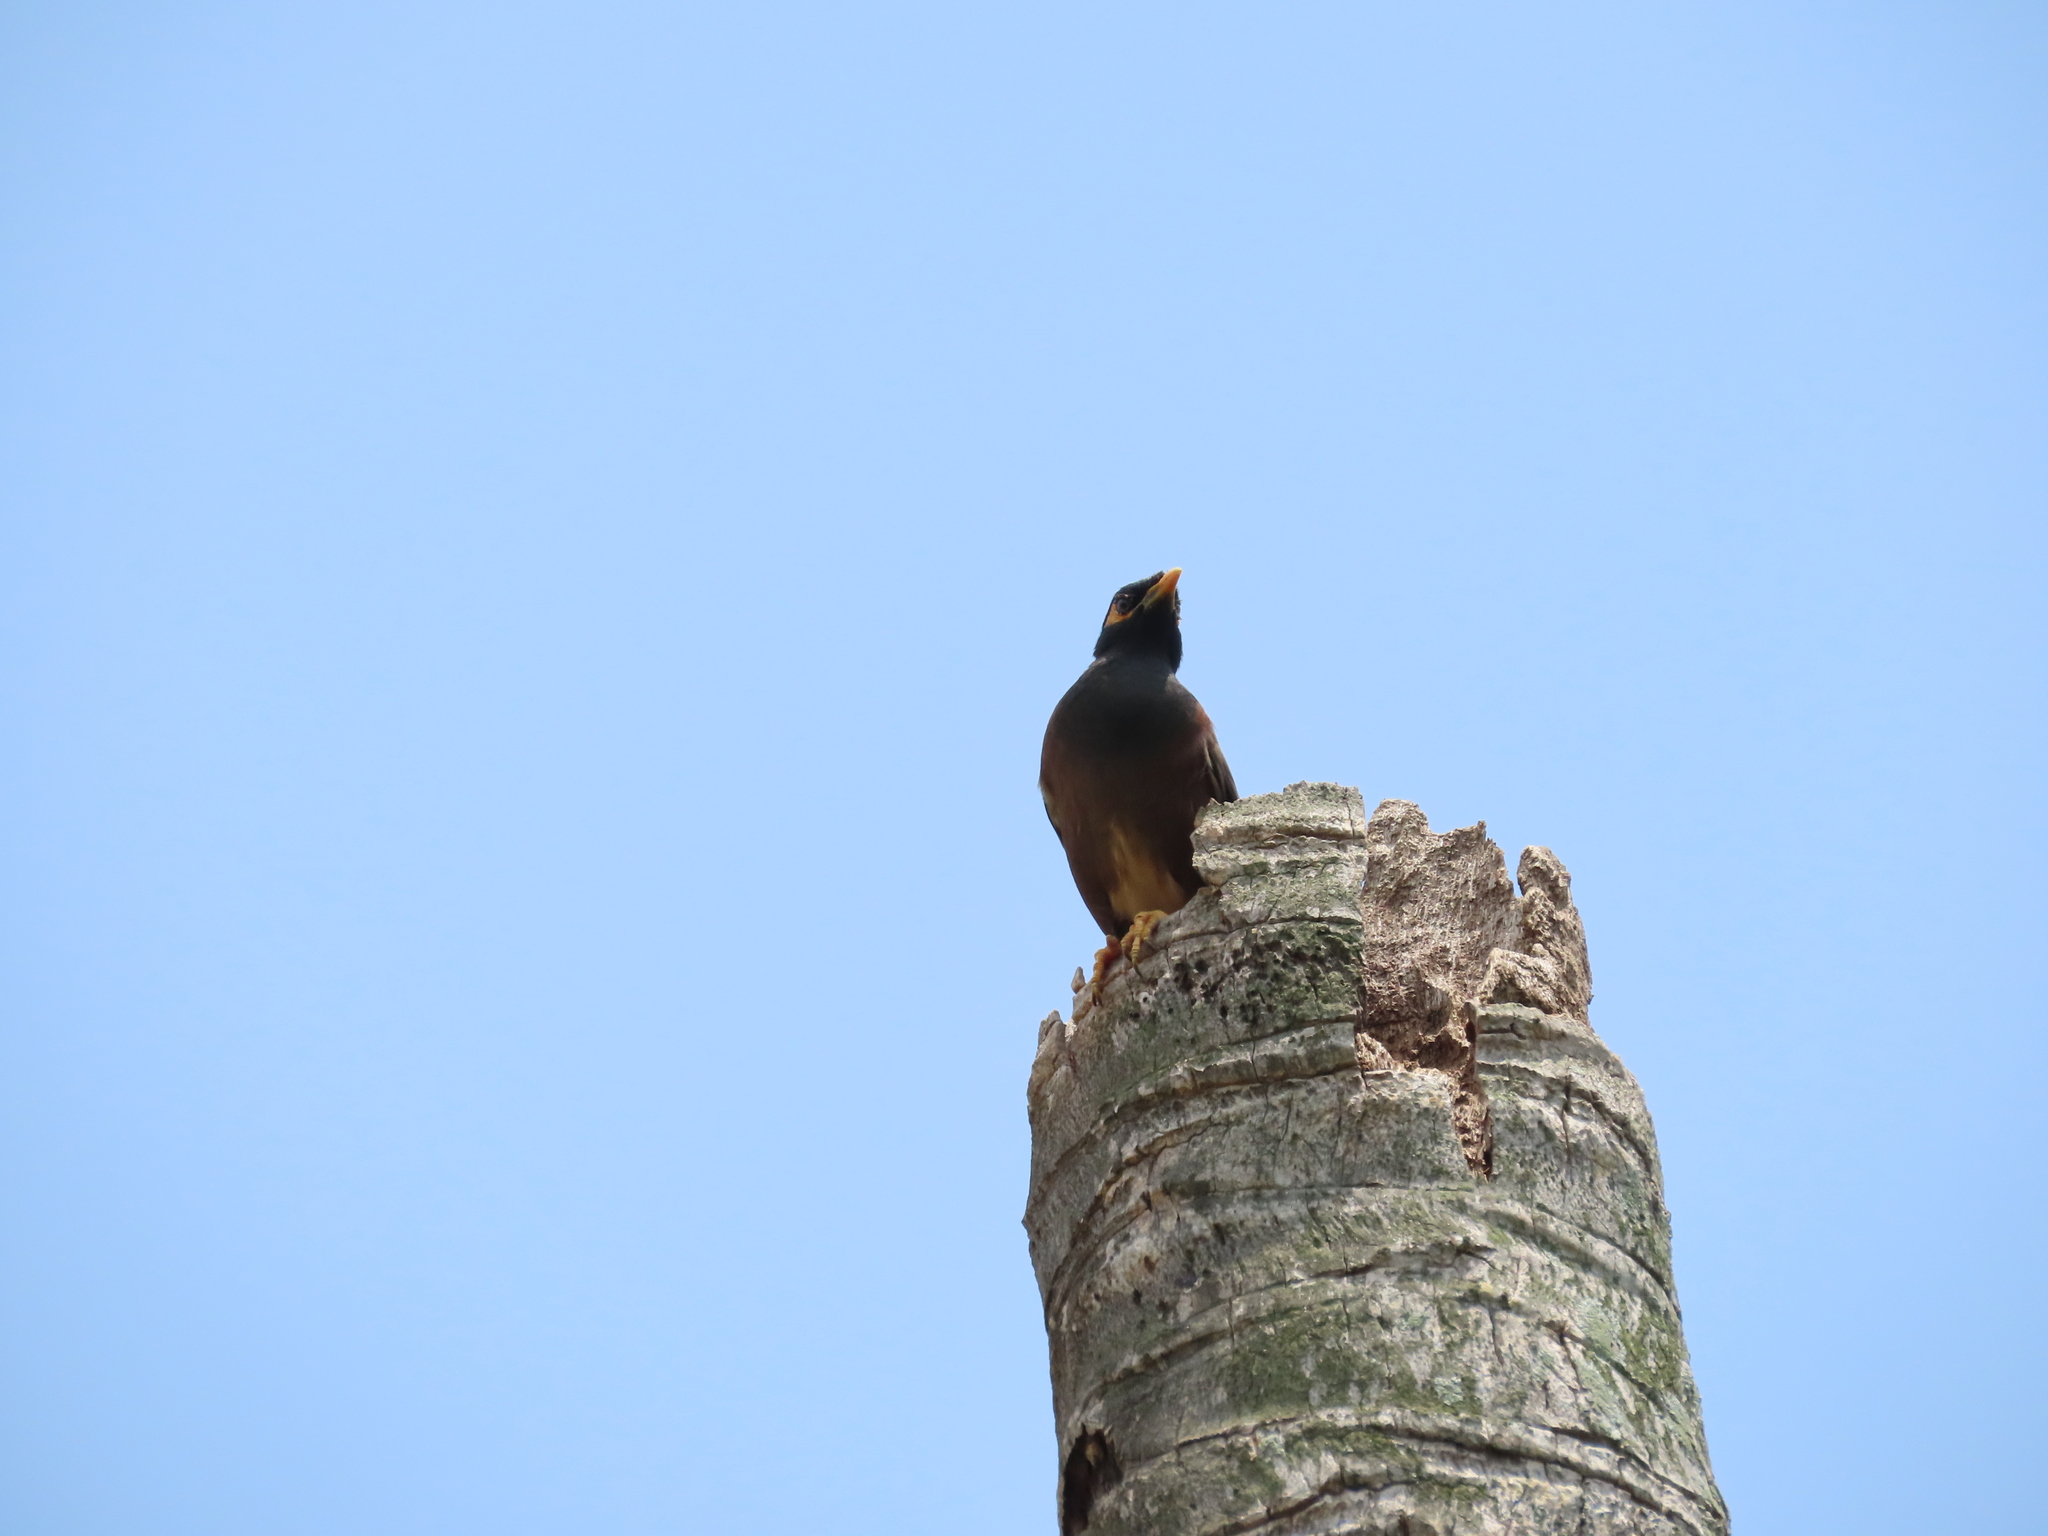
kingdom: Animalia
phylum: Chordata
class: Aves
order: Passeriformes
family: Sturnidae
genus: Acridotheres
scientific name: Acridotheres tristis
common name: Common myna
